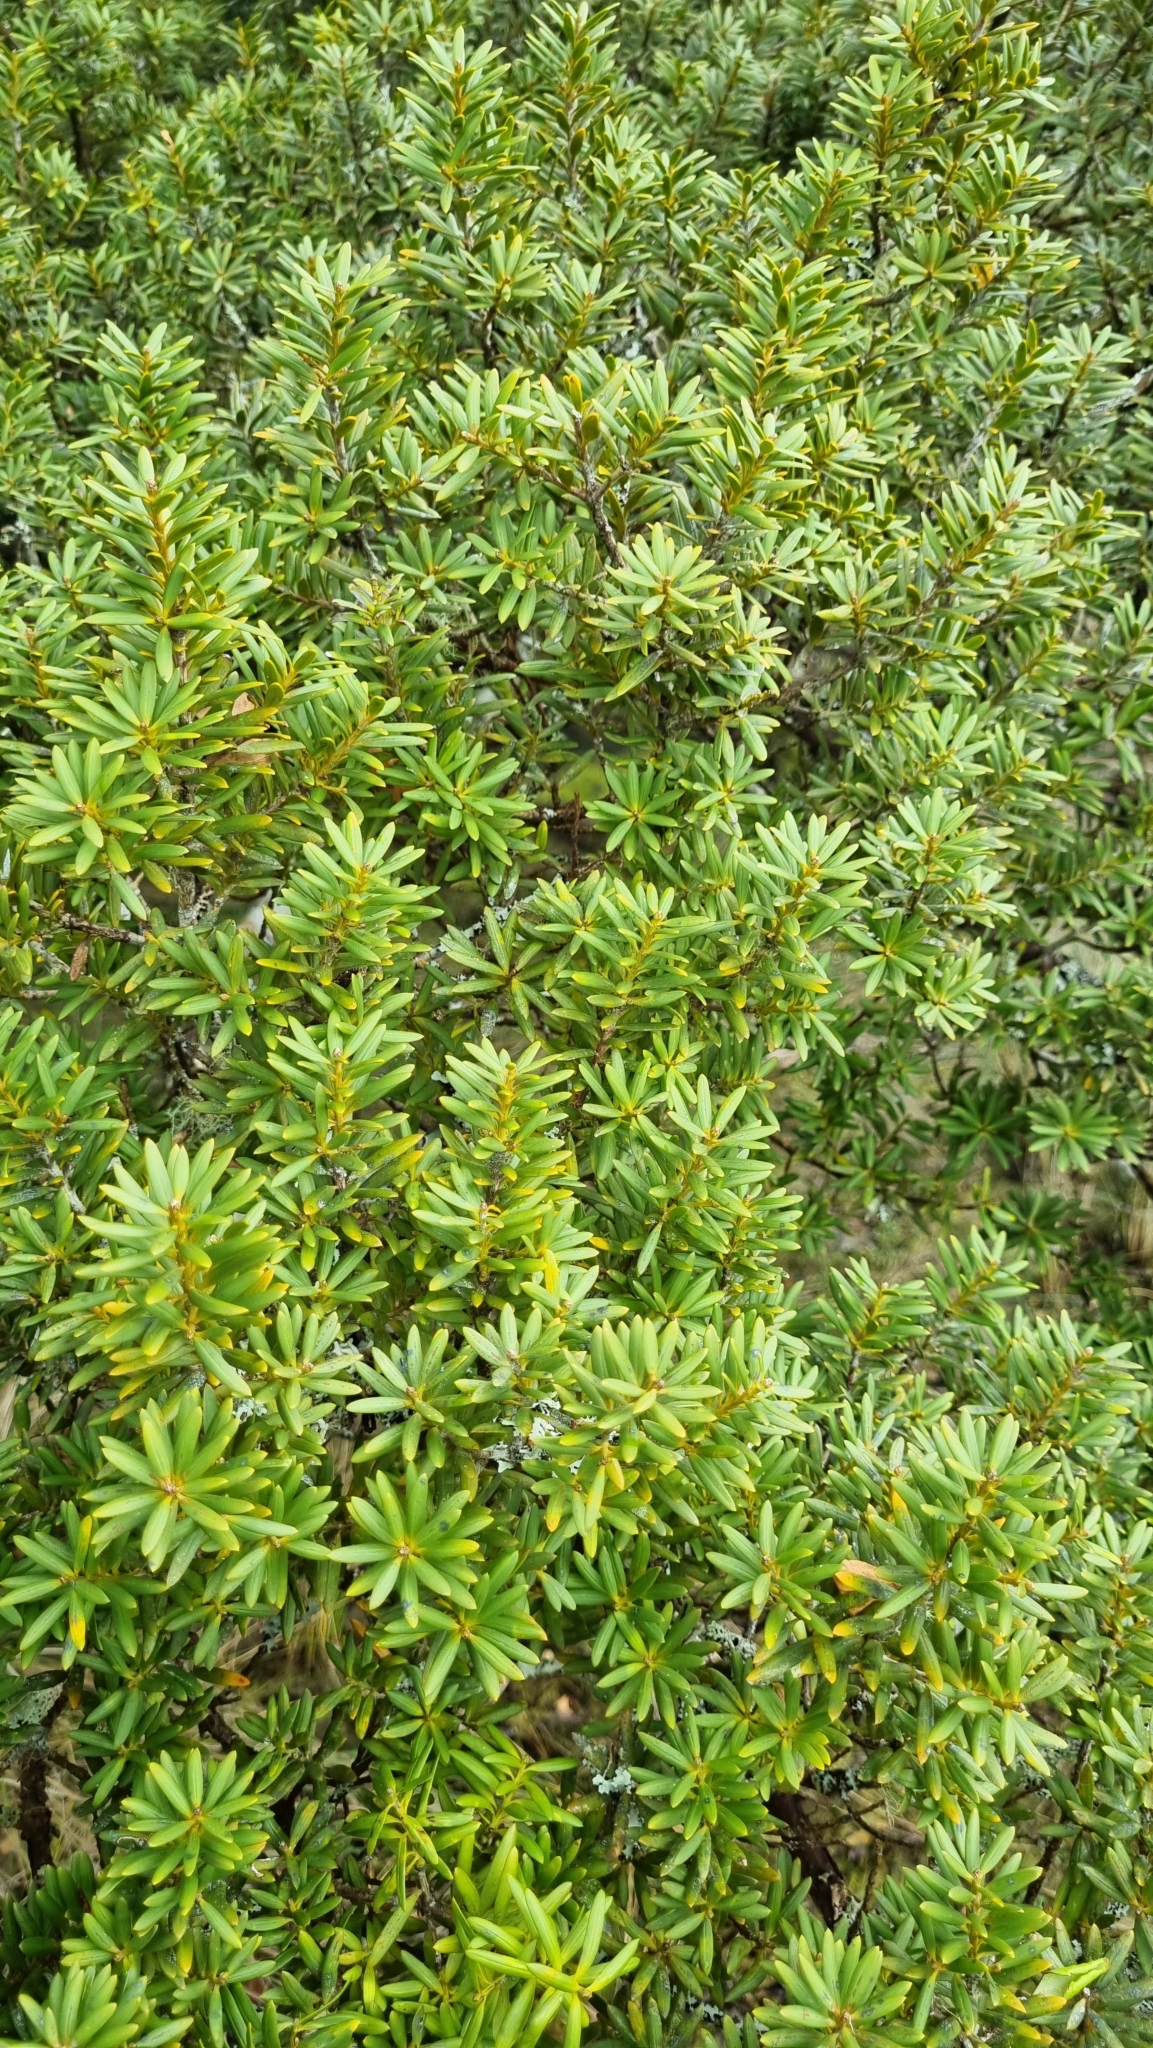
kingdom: Plantae
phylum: Tracheophyta
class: Pinopsida
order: Pinales
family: Podocarpaceae
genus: Podocarpus
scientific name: Podocarpus laetus
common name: Hall's totara
